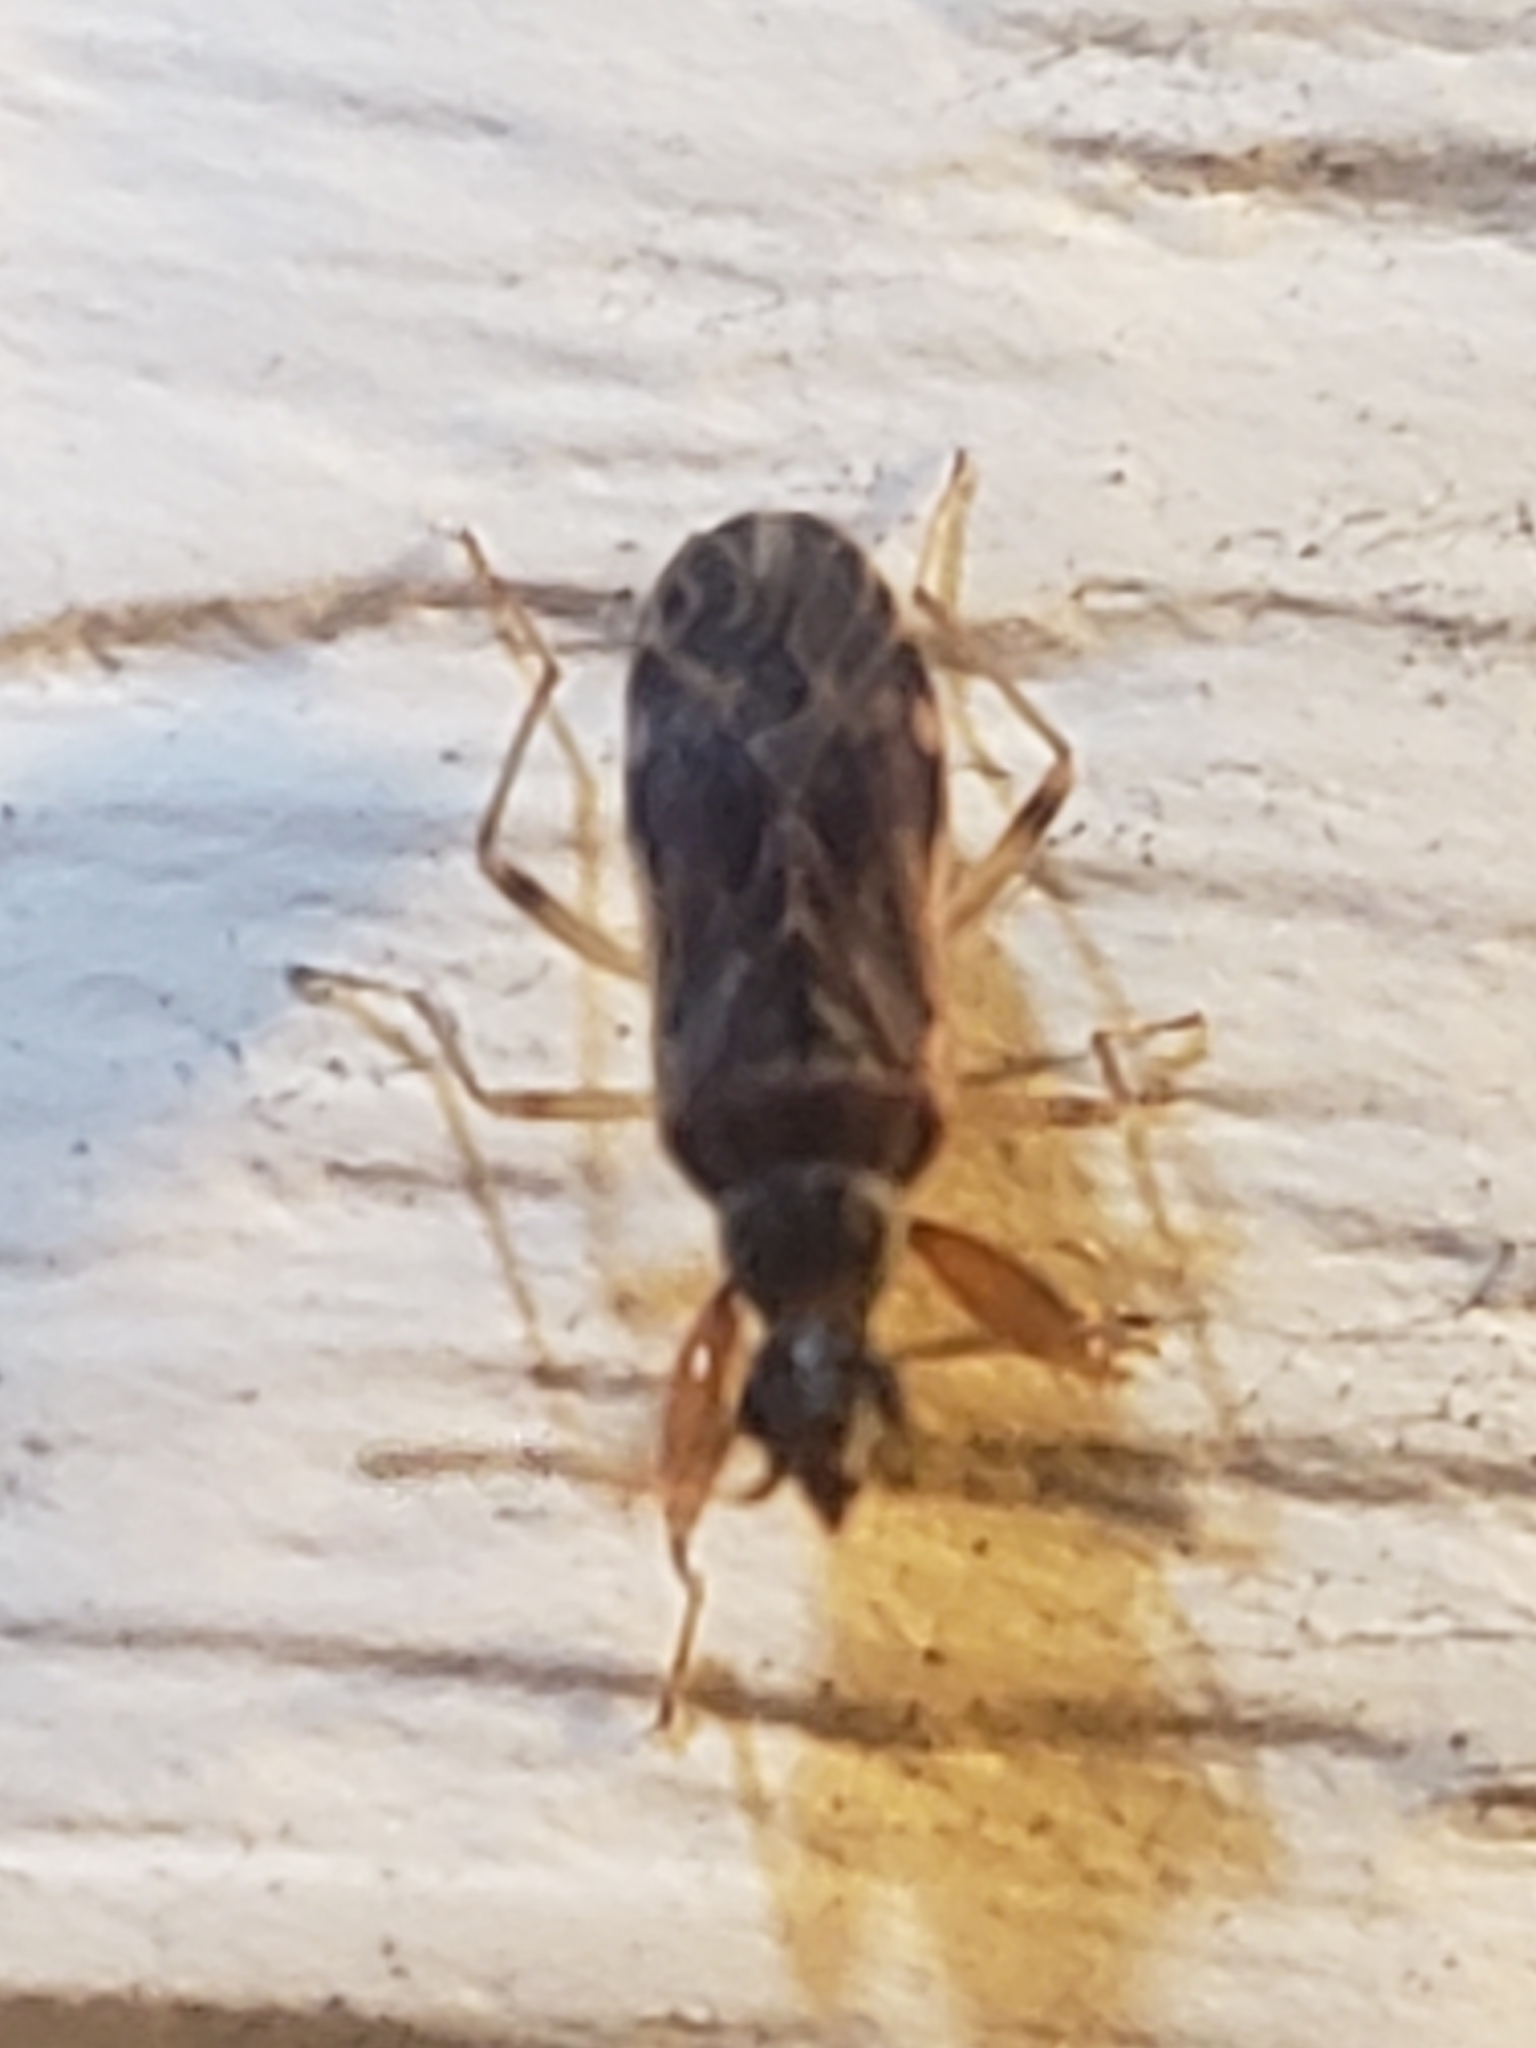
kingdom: Animalia
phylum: Arthropoda
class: Insecta
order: Hemiptera
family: Rhyparochromidae
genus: Heraeus
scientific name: Heraeus plebejus
